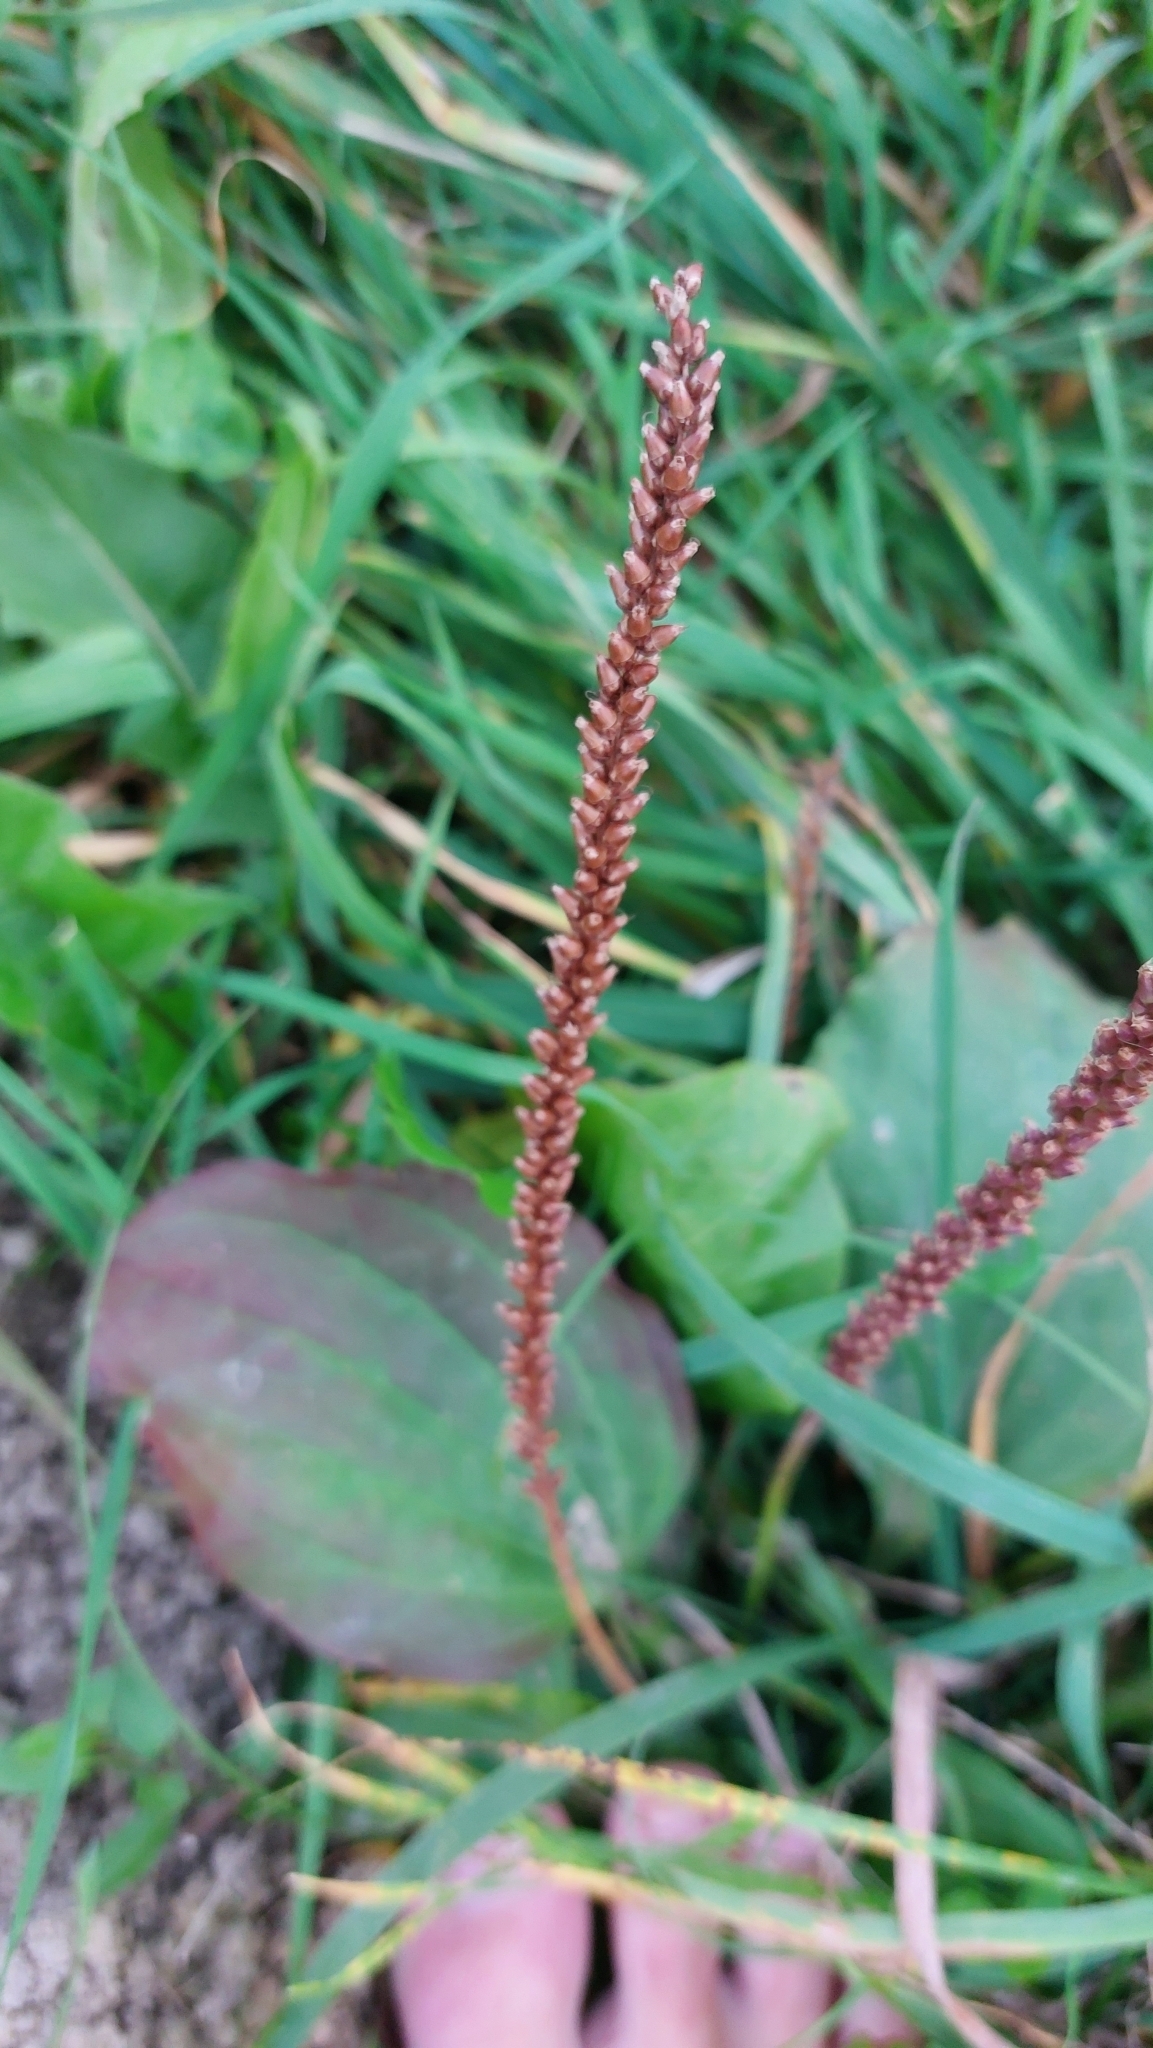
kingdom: Plantae
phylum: Tracheophyta
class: Magnoliopsida
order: Lamiales
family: Plantaginaceae
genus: Plantago
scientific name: Plantago major
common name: Common plantain
